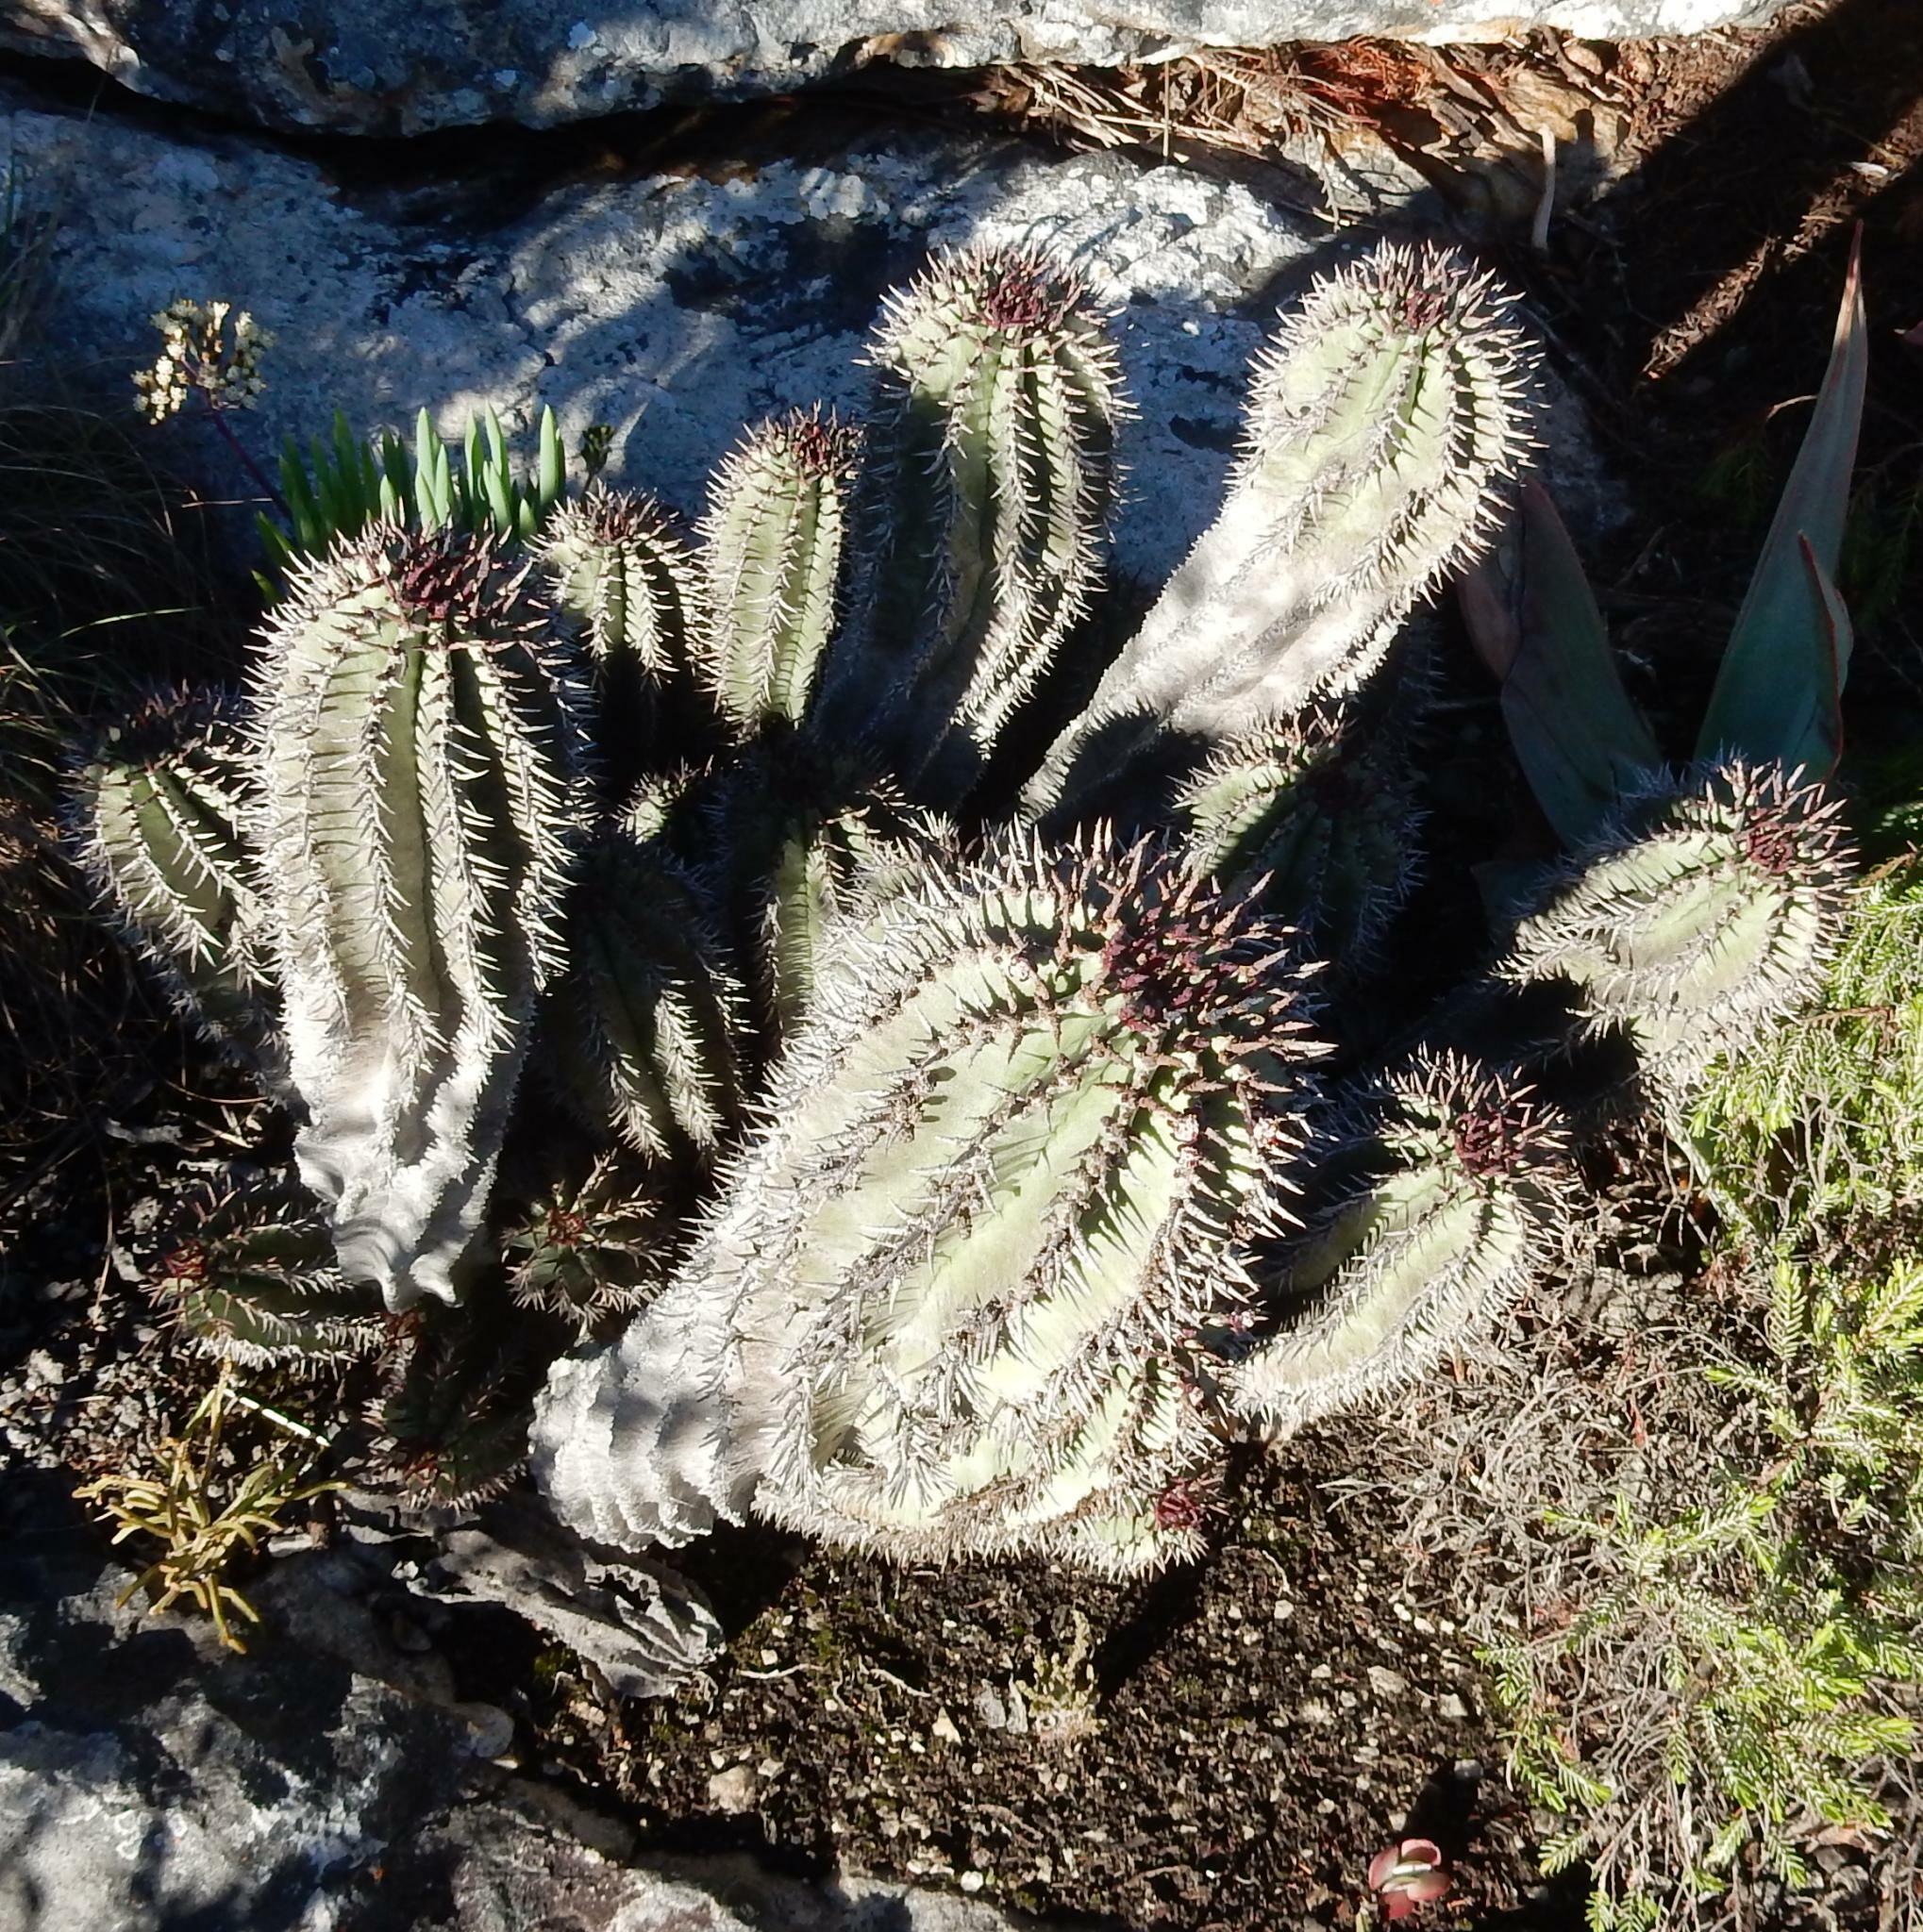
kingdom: Plantae
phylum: Tracheophyta
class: Magnoliopsida
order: Malpighiales
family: Euphorbiaceae
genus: Euphorbia
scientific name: Euphorbia polygona
